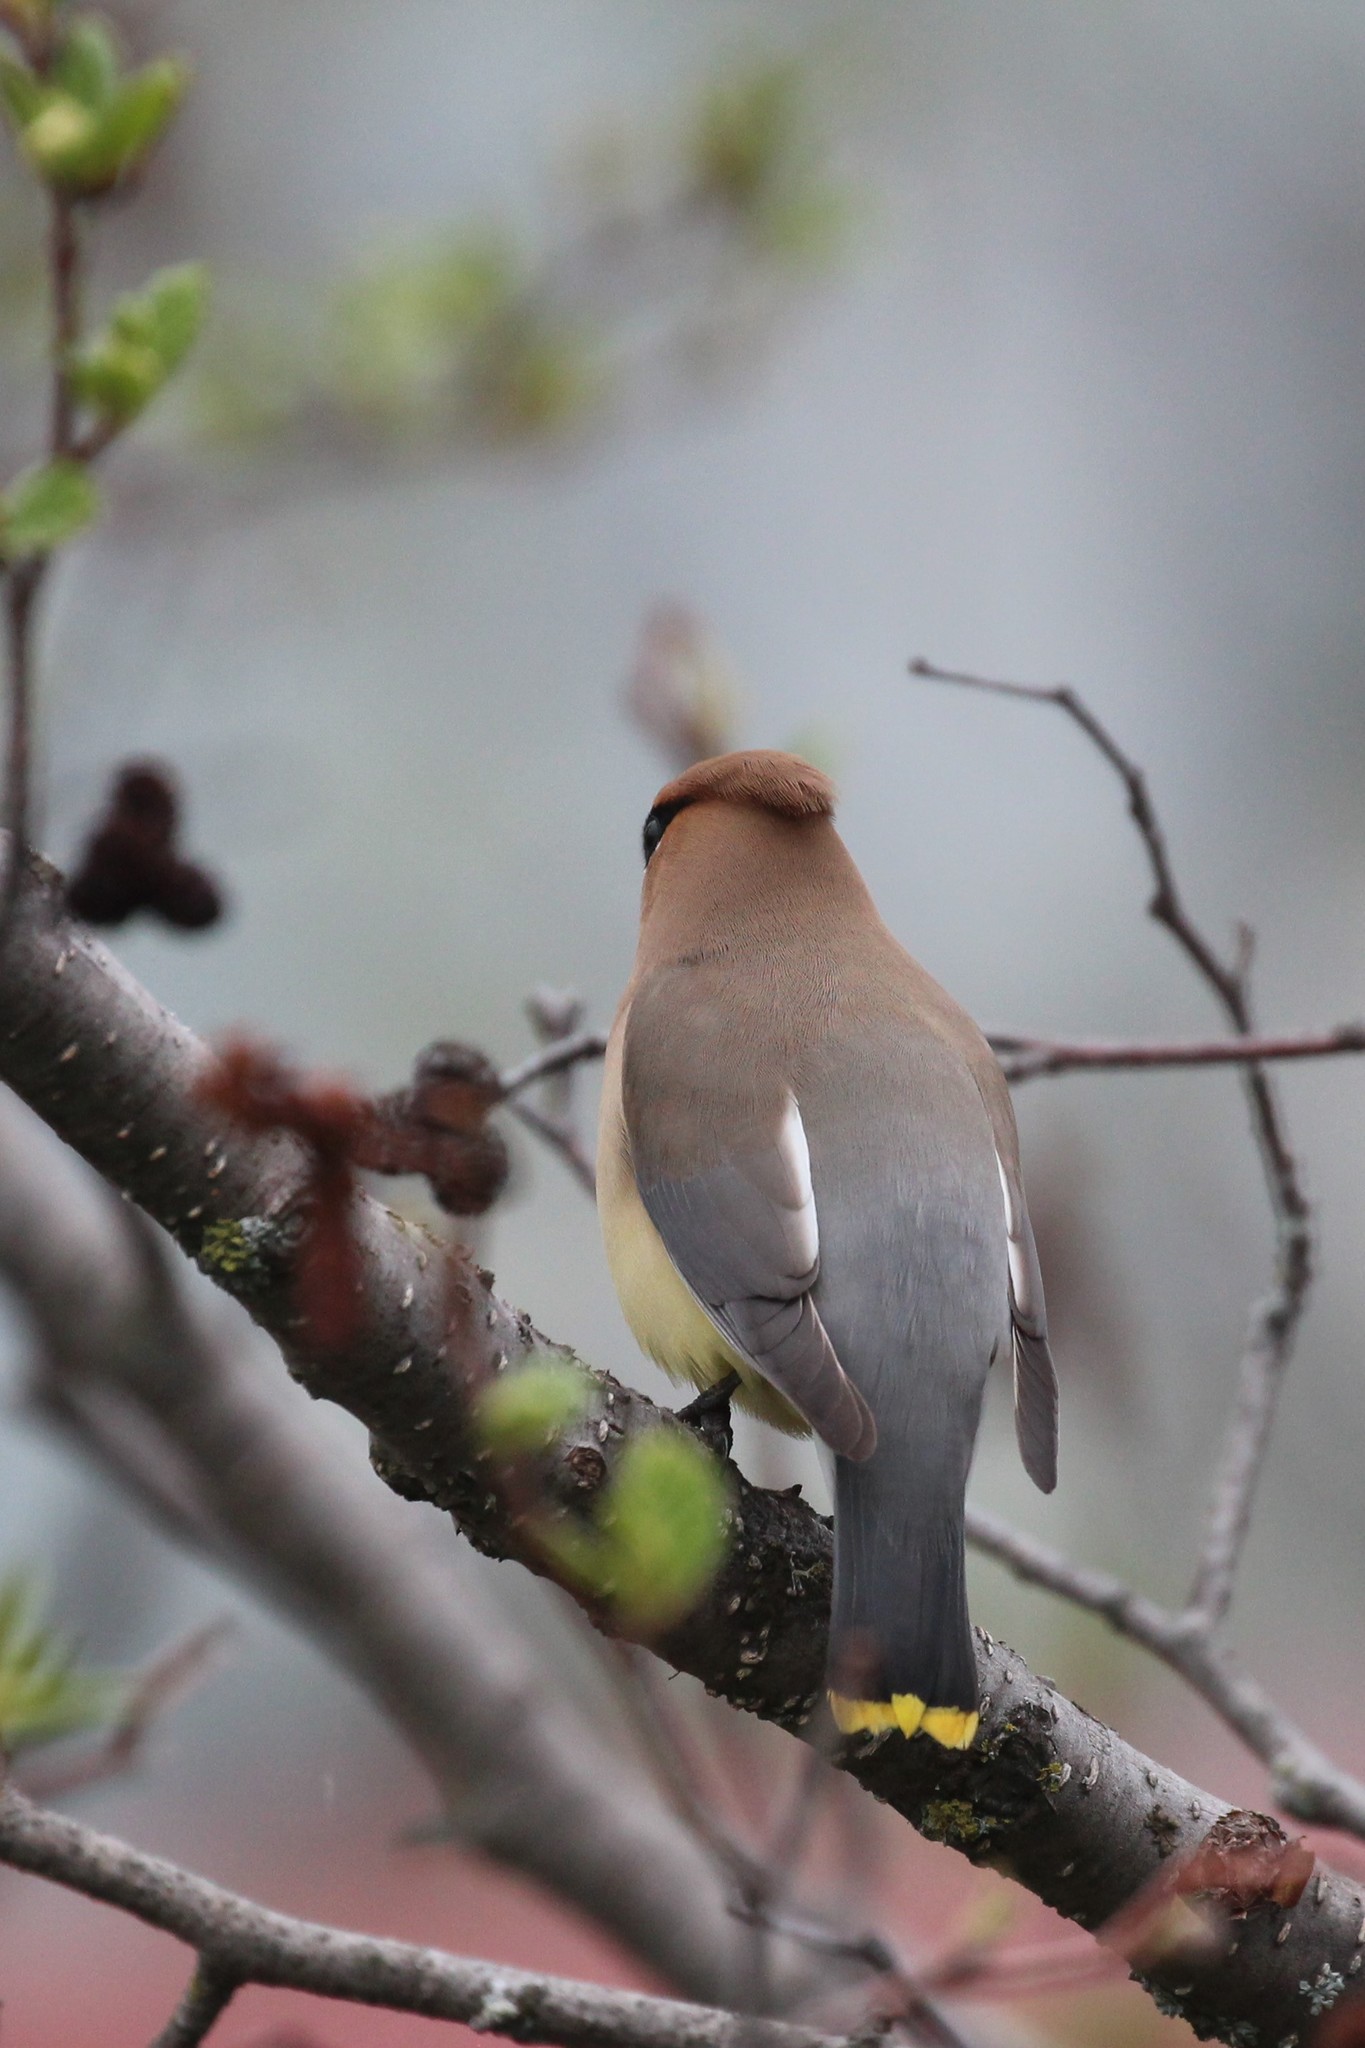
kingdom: Animalia
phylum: Chordata
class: Aves
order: Passeriformes
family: Bombycillidae
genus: Bombycilla
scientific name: Bombycilla cedrorum
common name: Cedar waxwing
